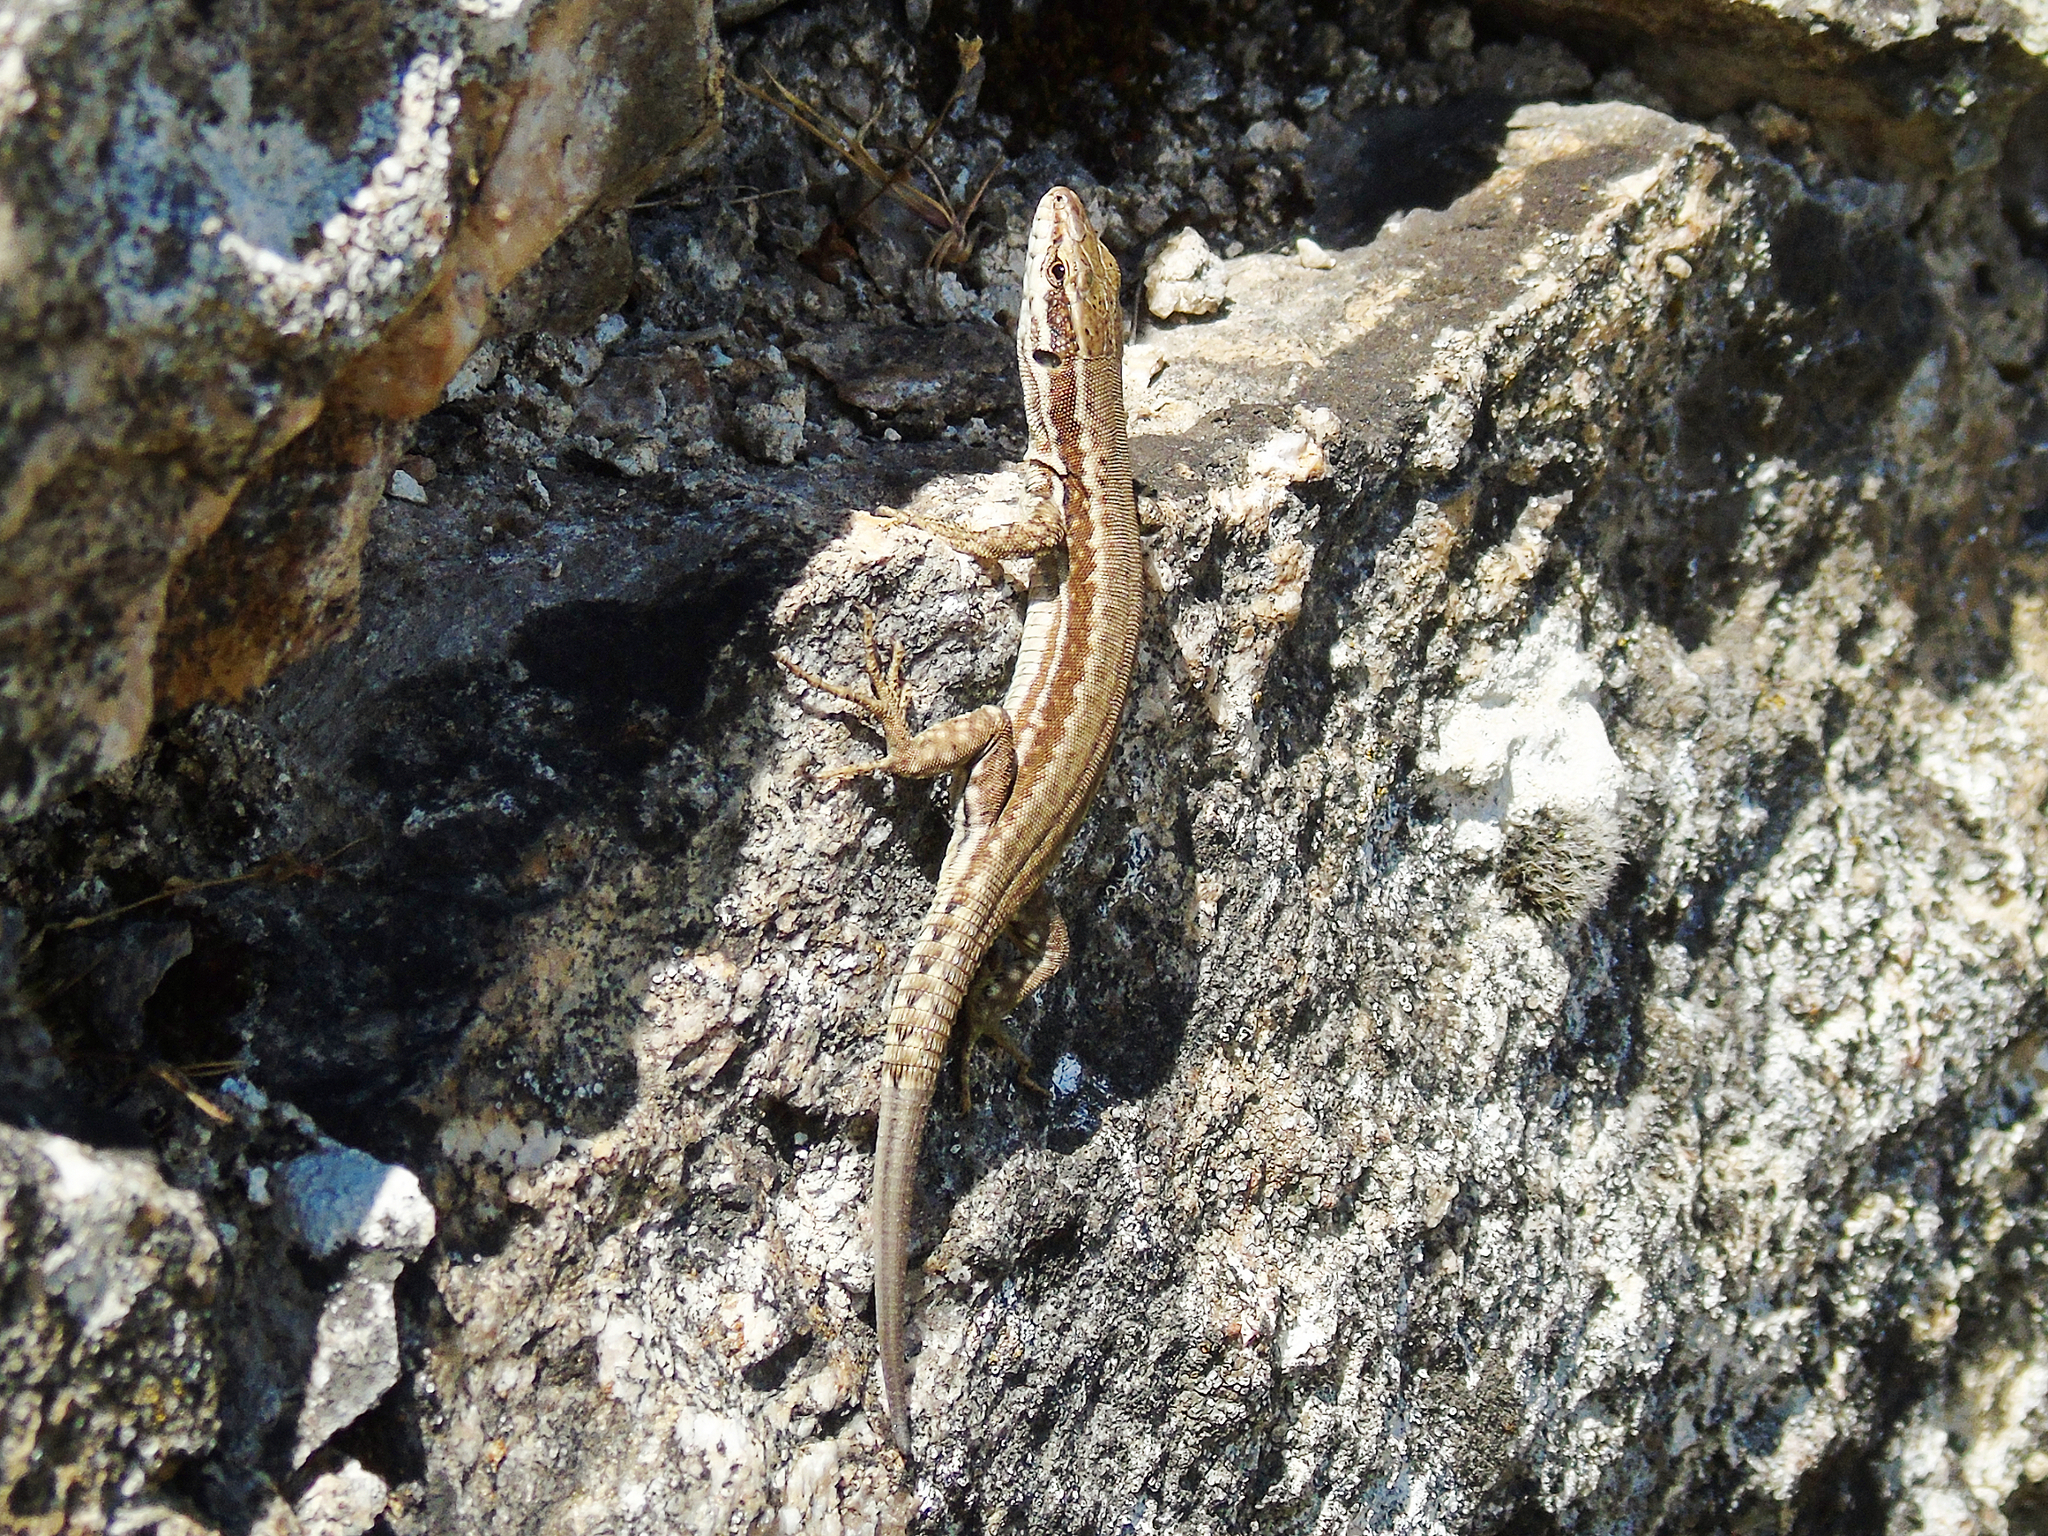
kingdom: Animalia
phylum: Chordata
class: Squamata
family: Lacertidae
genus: Podarcis
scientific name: Podarcis muralis
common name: Common wall lizard
